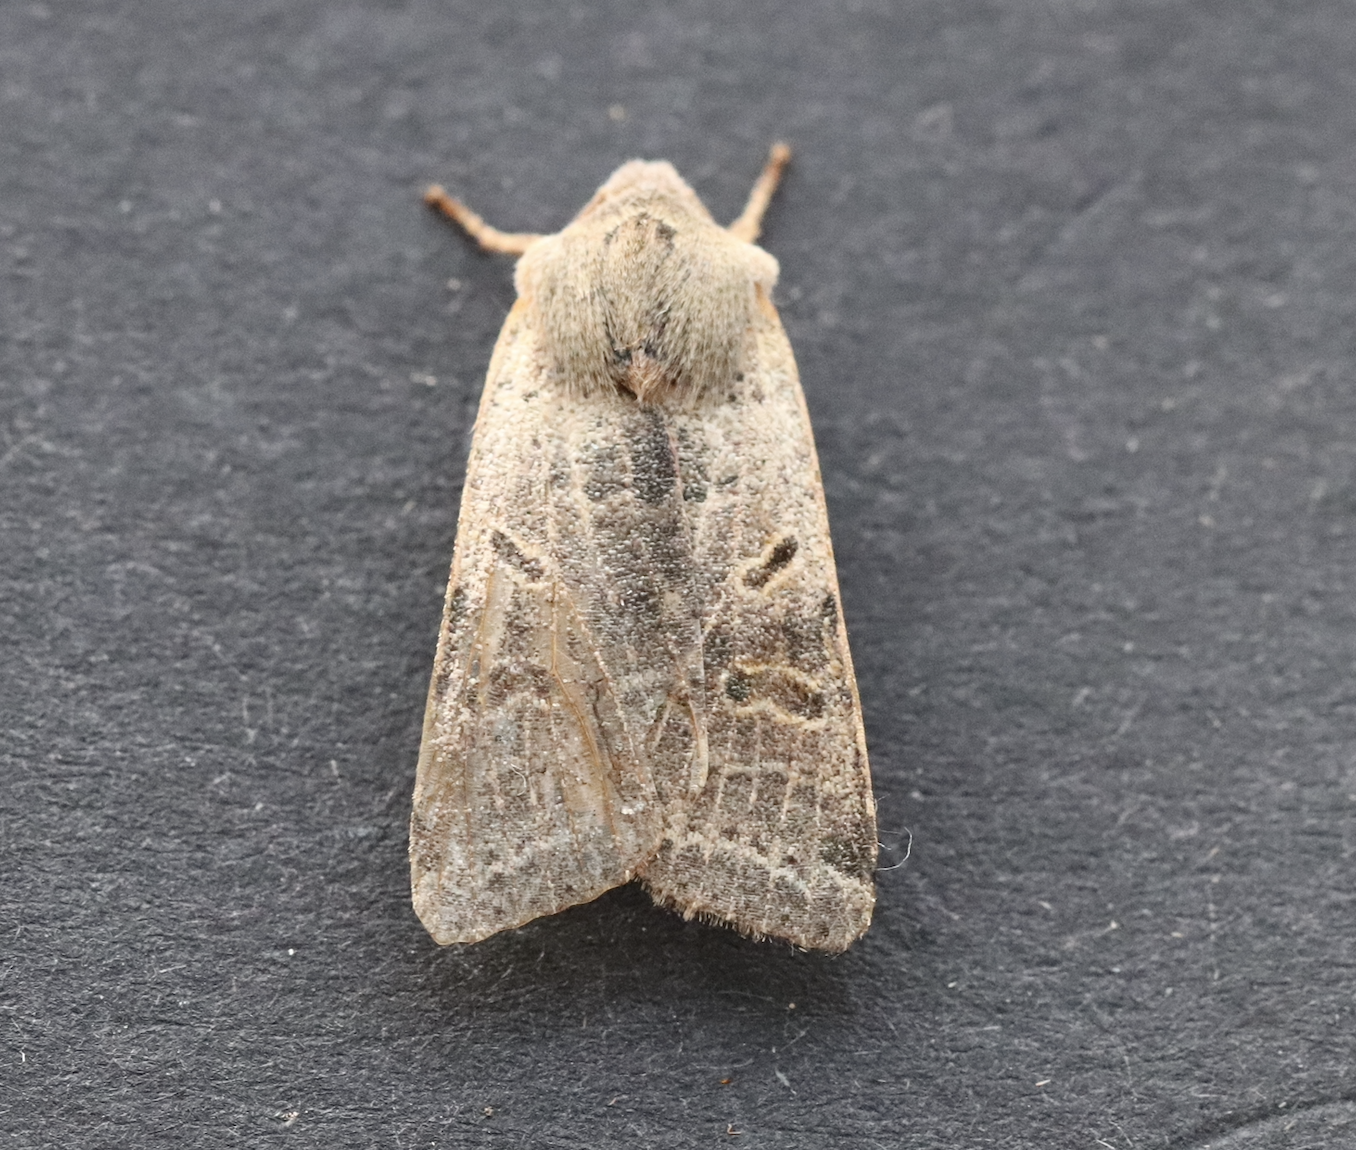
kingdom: Animalia
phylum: Arthropoda
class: Insecta
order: Lepidoptera
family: Noctuidae
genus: Agrochola
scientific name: Agrochola lychnidis
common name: Beaded chestnut
